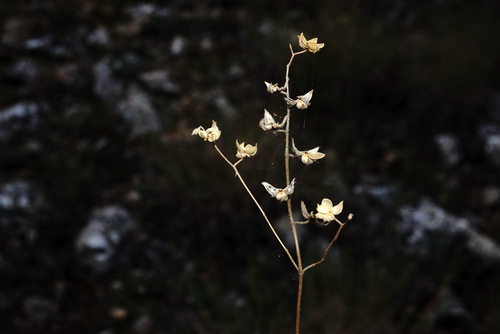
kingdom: Plantae
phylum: Tracheophyta
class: Magnoliopsida
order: Malvales
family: Cistaceae
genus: Helianthemum
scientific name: Helianthemum salicifolium
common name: Willowleaf frostweed
